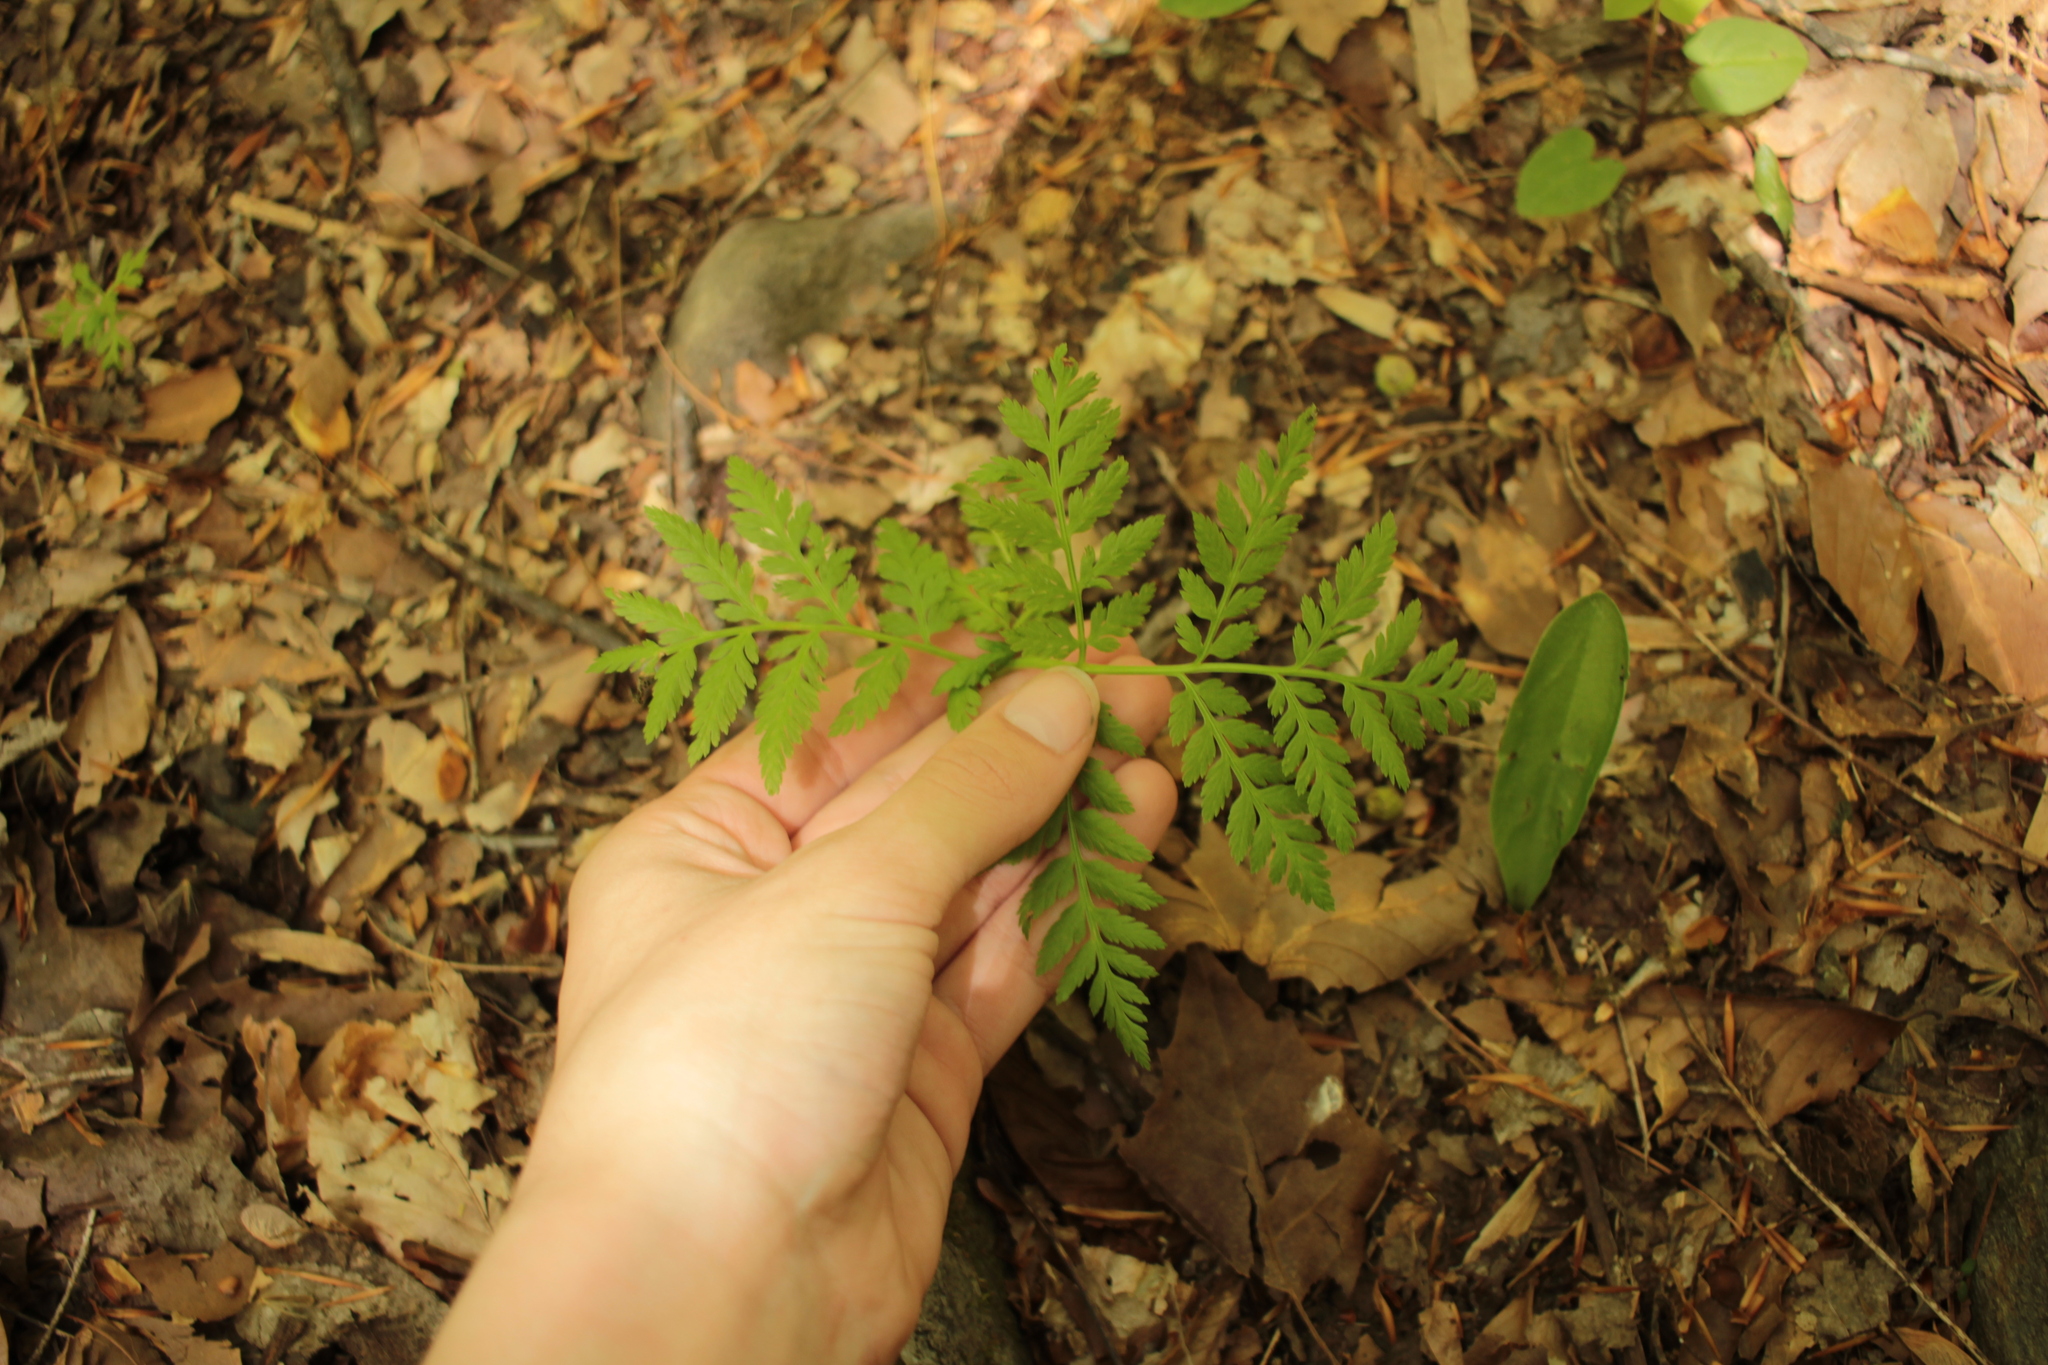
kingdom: Plantae
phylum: Tracheophyta
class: Polypodiopsida
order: Ophioglossales
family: Ophioglossaceae
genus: Botrypus
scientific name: Botrypus virginianus
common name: Common grapefern
